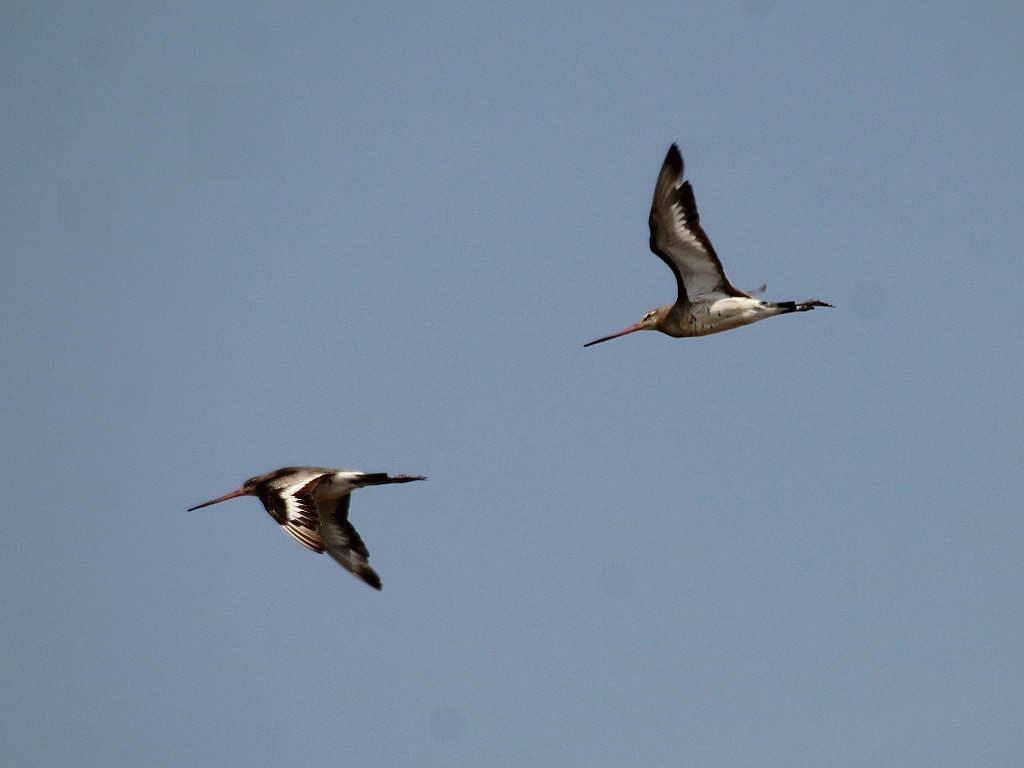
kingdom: Animalia
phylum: Chordata
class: Aves
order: Charadriiformes
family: Scolopacidae
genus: Limosa
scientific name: Limosa limosa
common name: Black-tailed godwit
